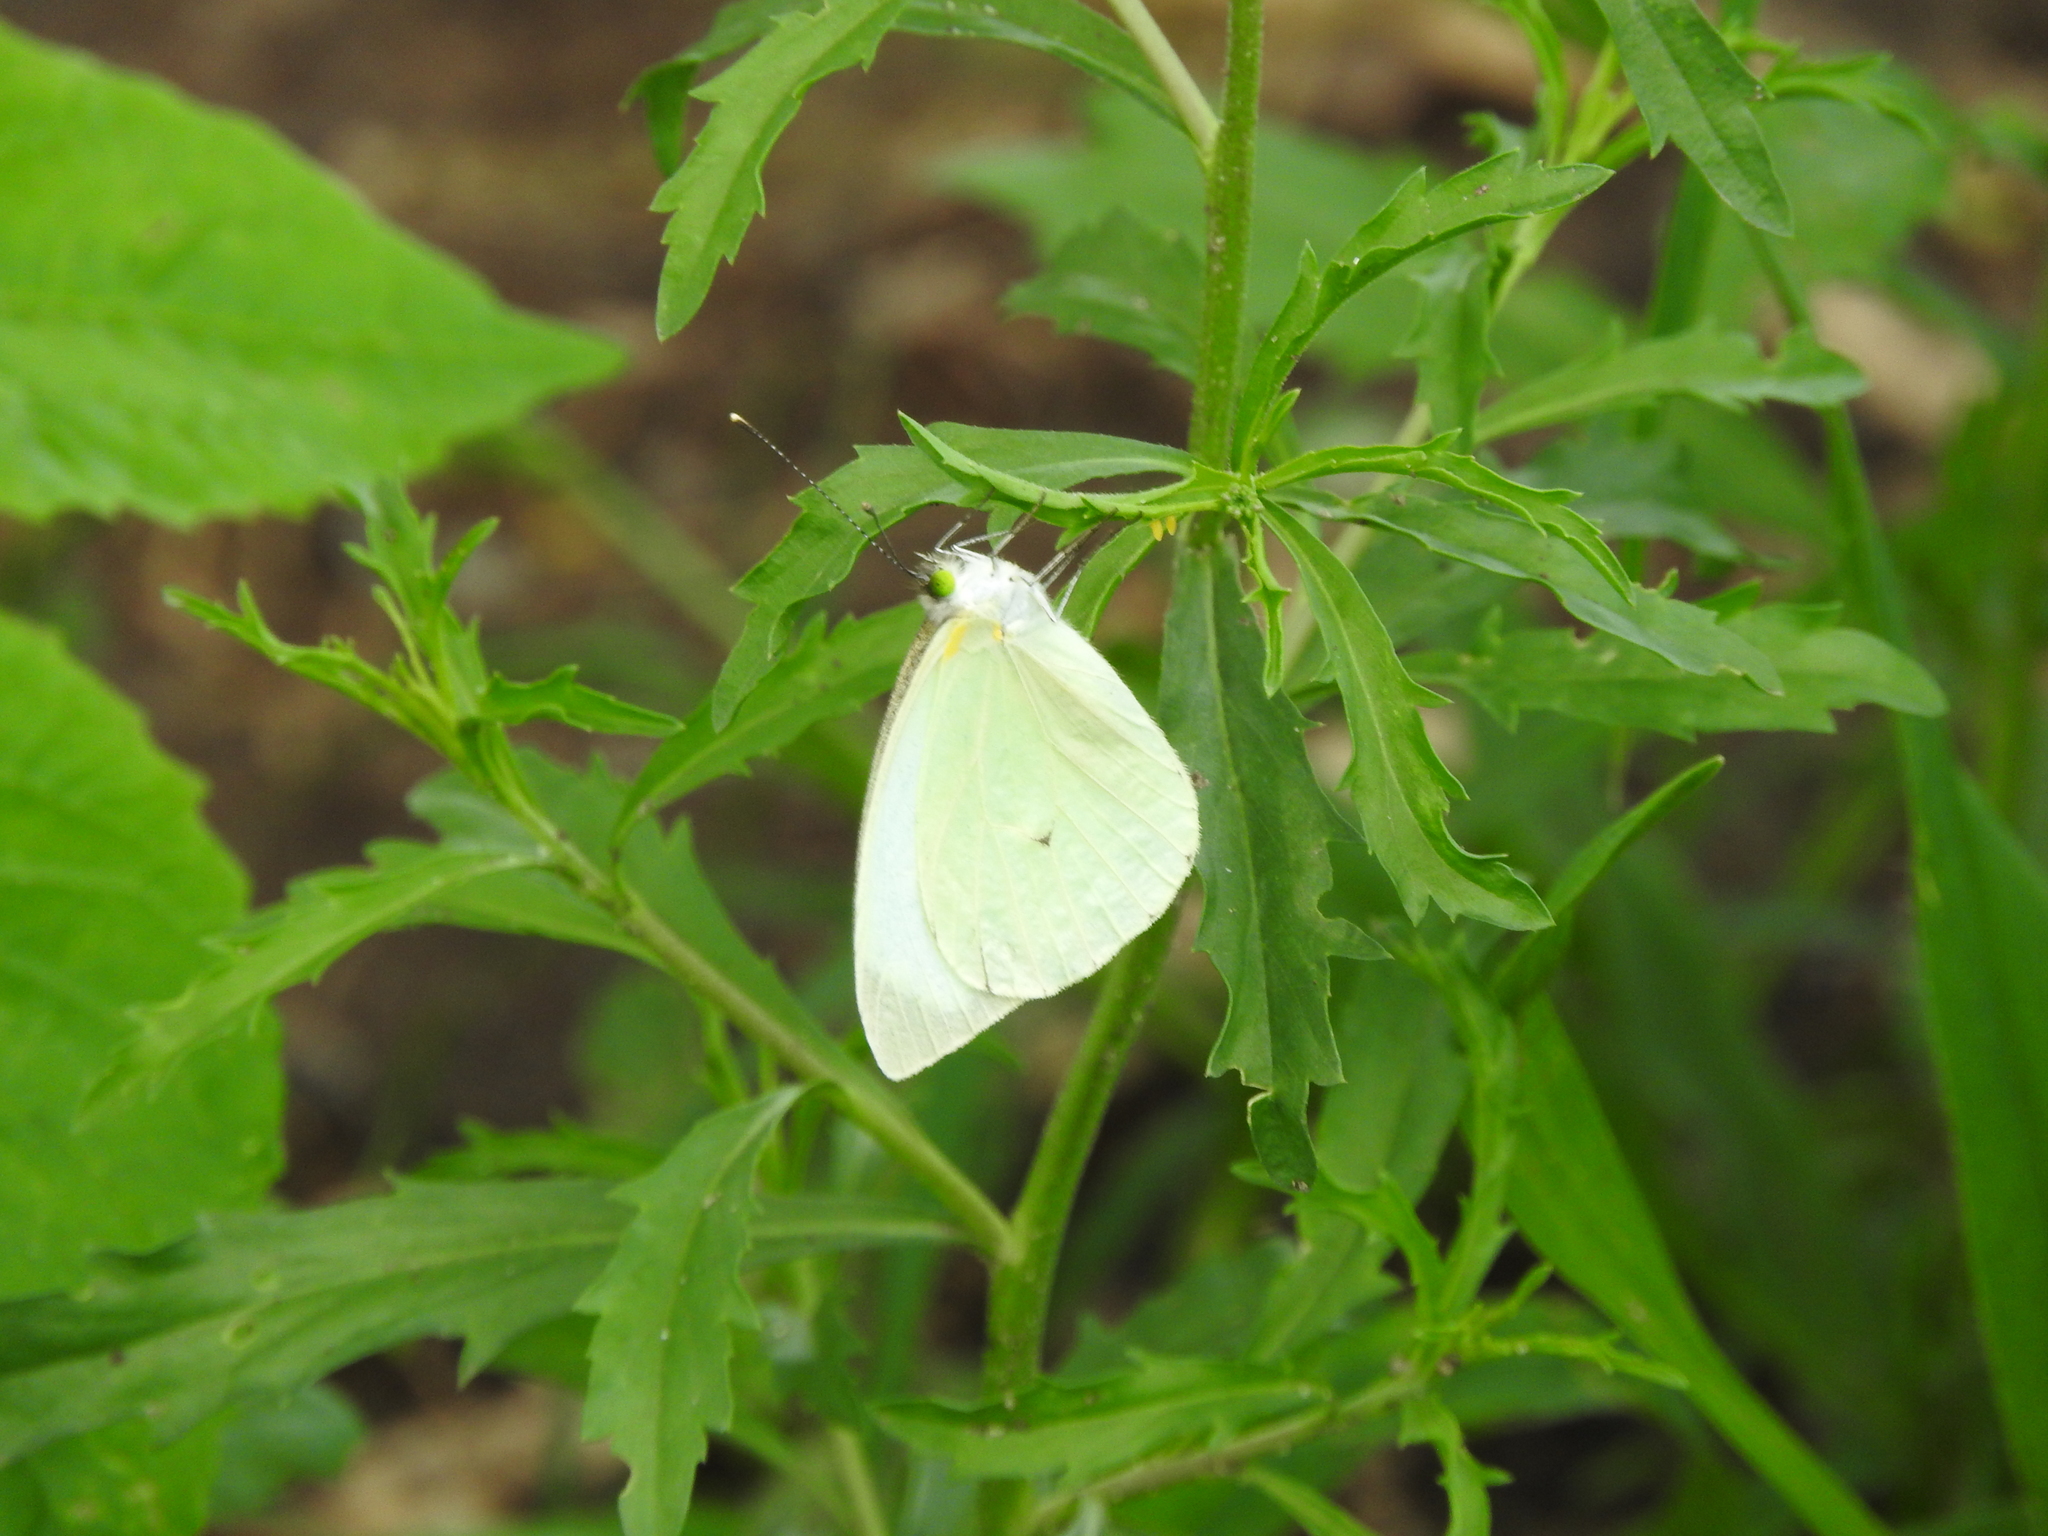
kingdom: Animalia
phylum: Arthropoda
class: Insecta
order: Lepidoptera
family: Pieridae
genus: Leptophobia
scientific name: Leptophobia aripa
